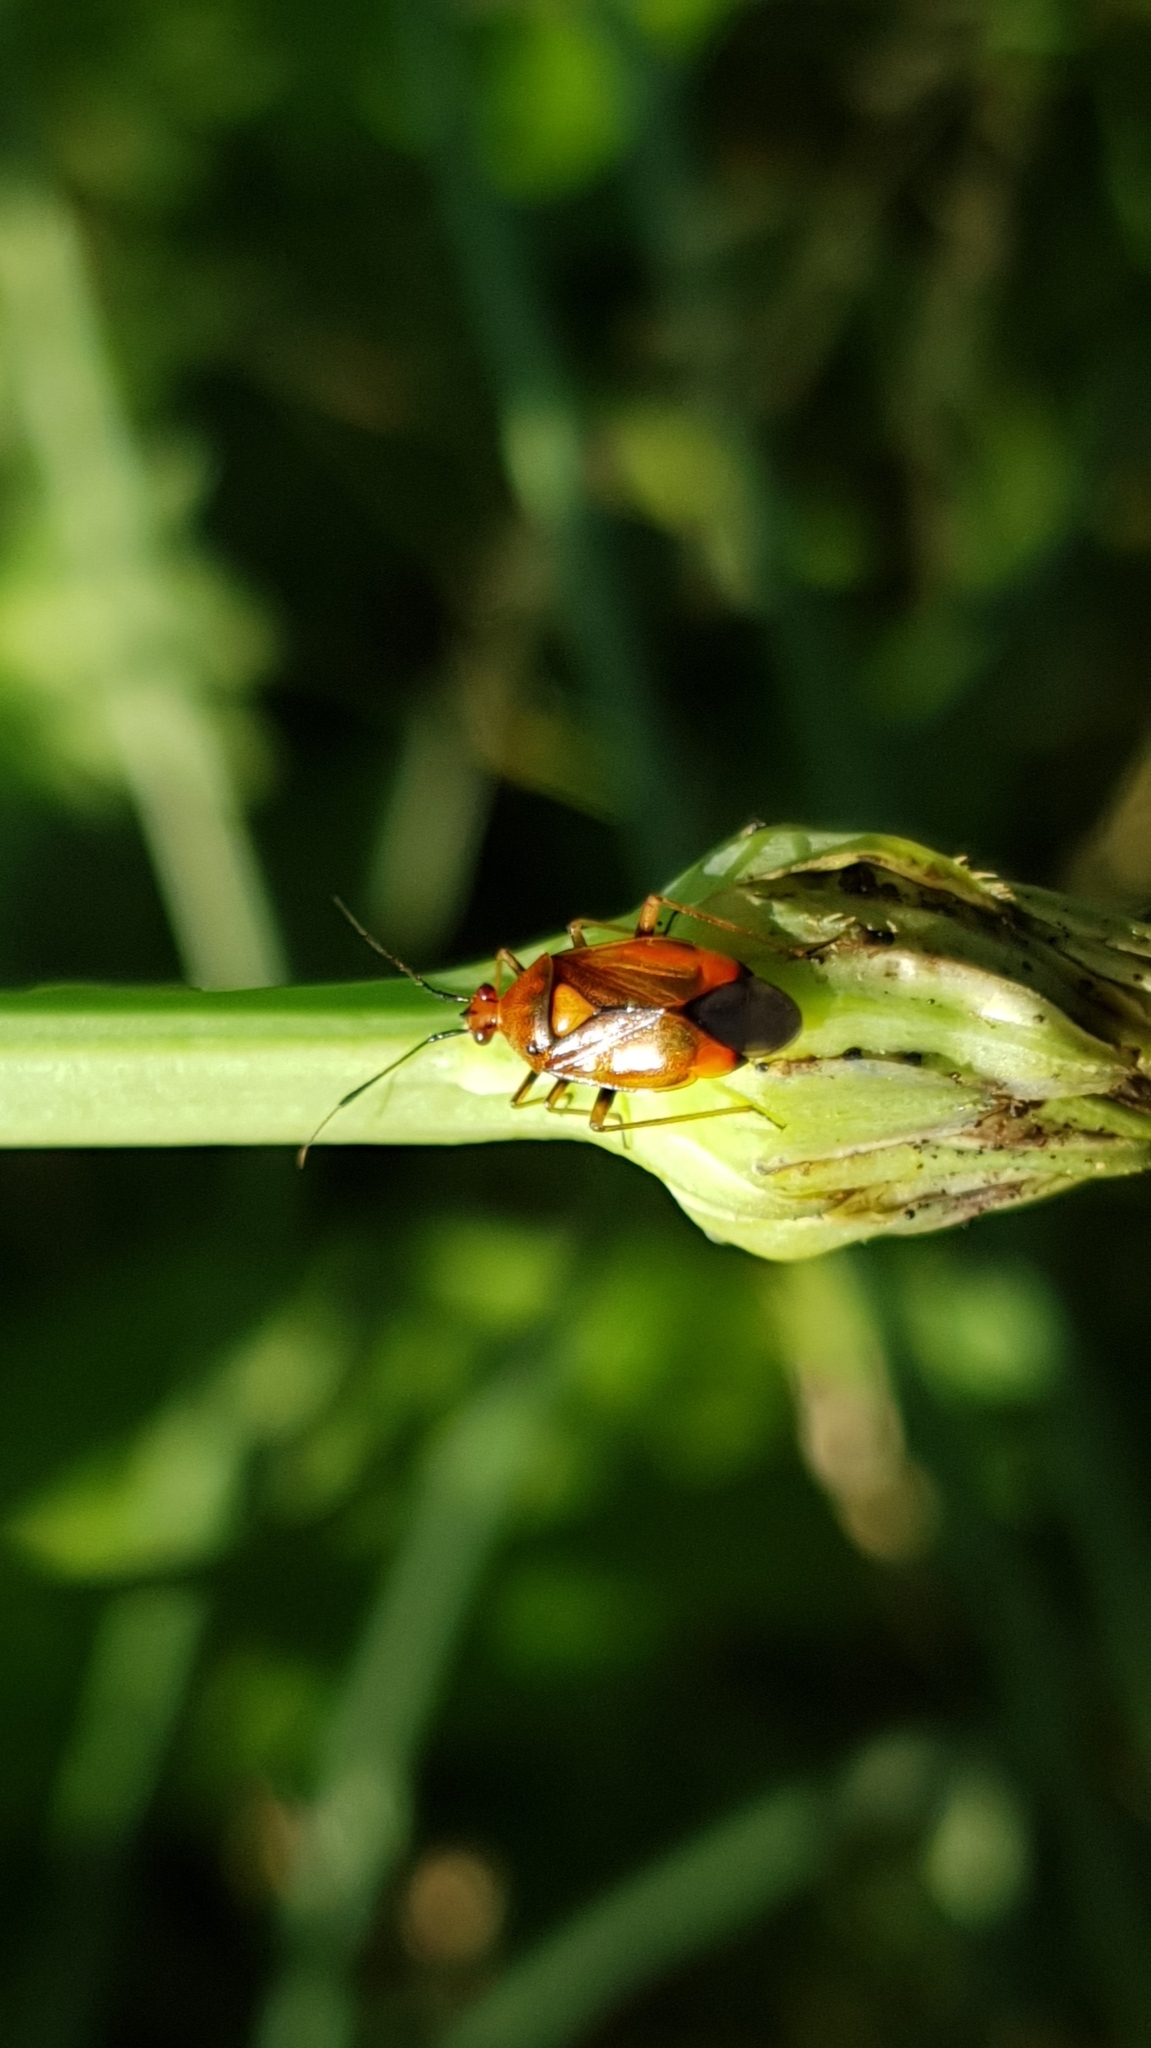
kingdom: Animalia
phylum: Arthropoda
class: Insecta
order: Hemiptera
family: Miridae
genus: Deraeocoris
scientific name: Deraeocoris ruber
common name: Plant bug
